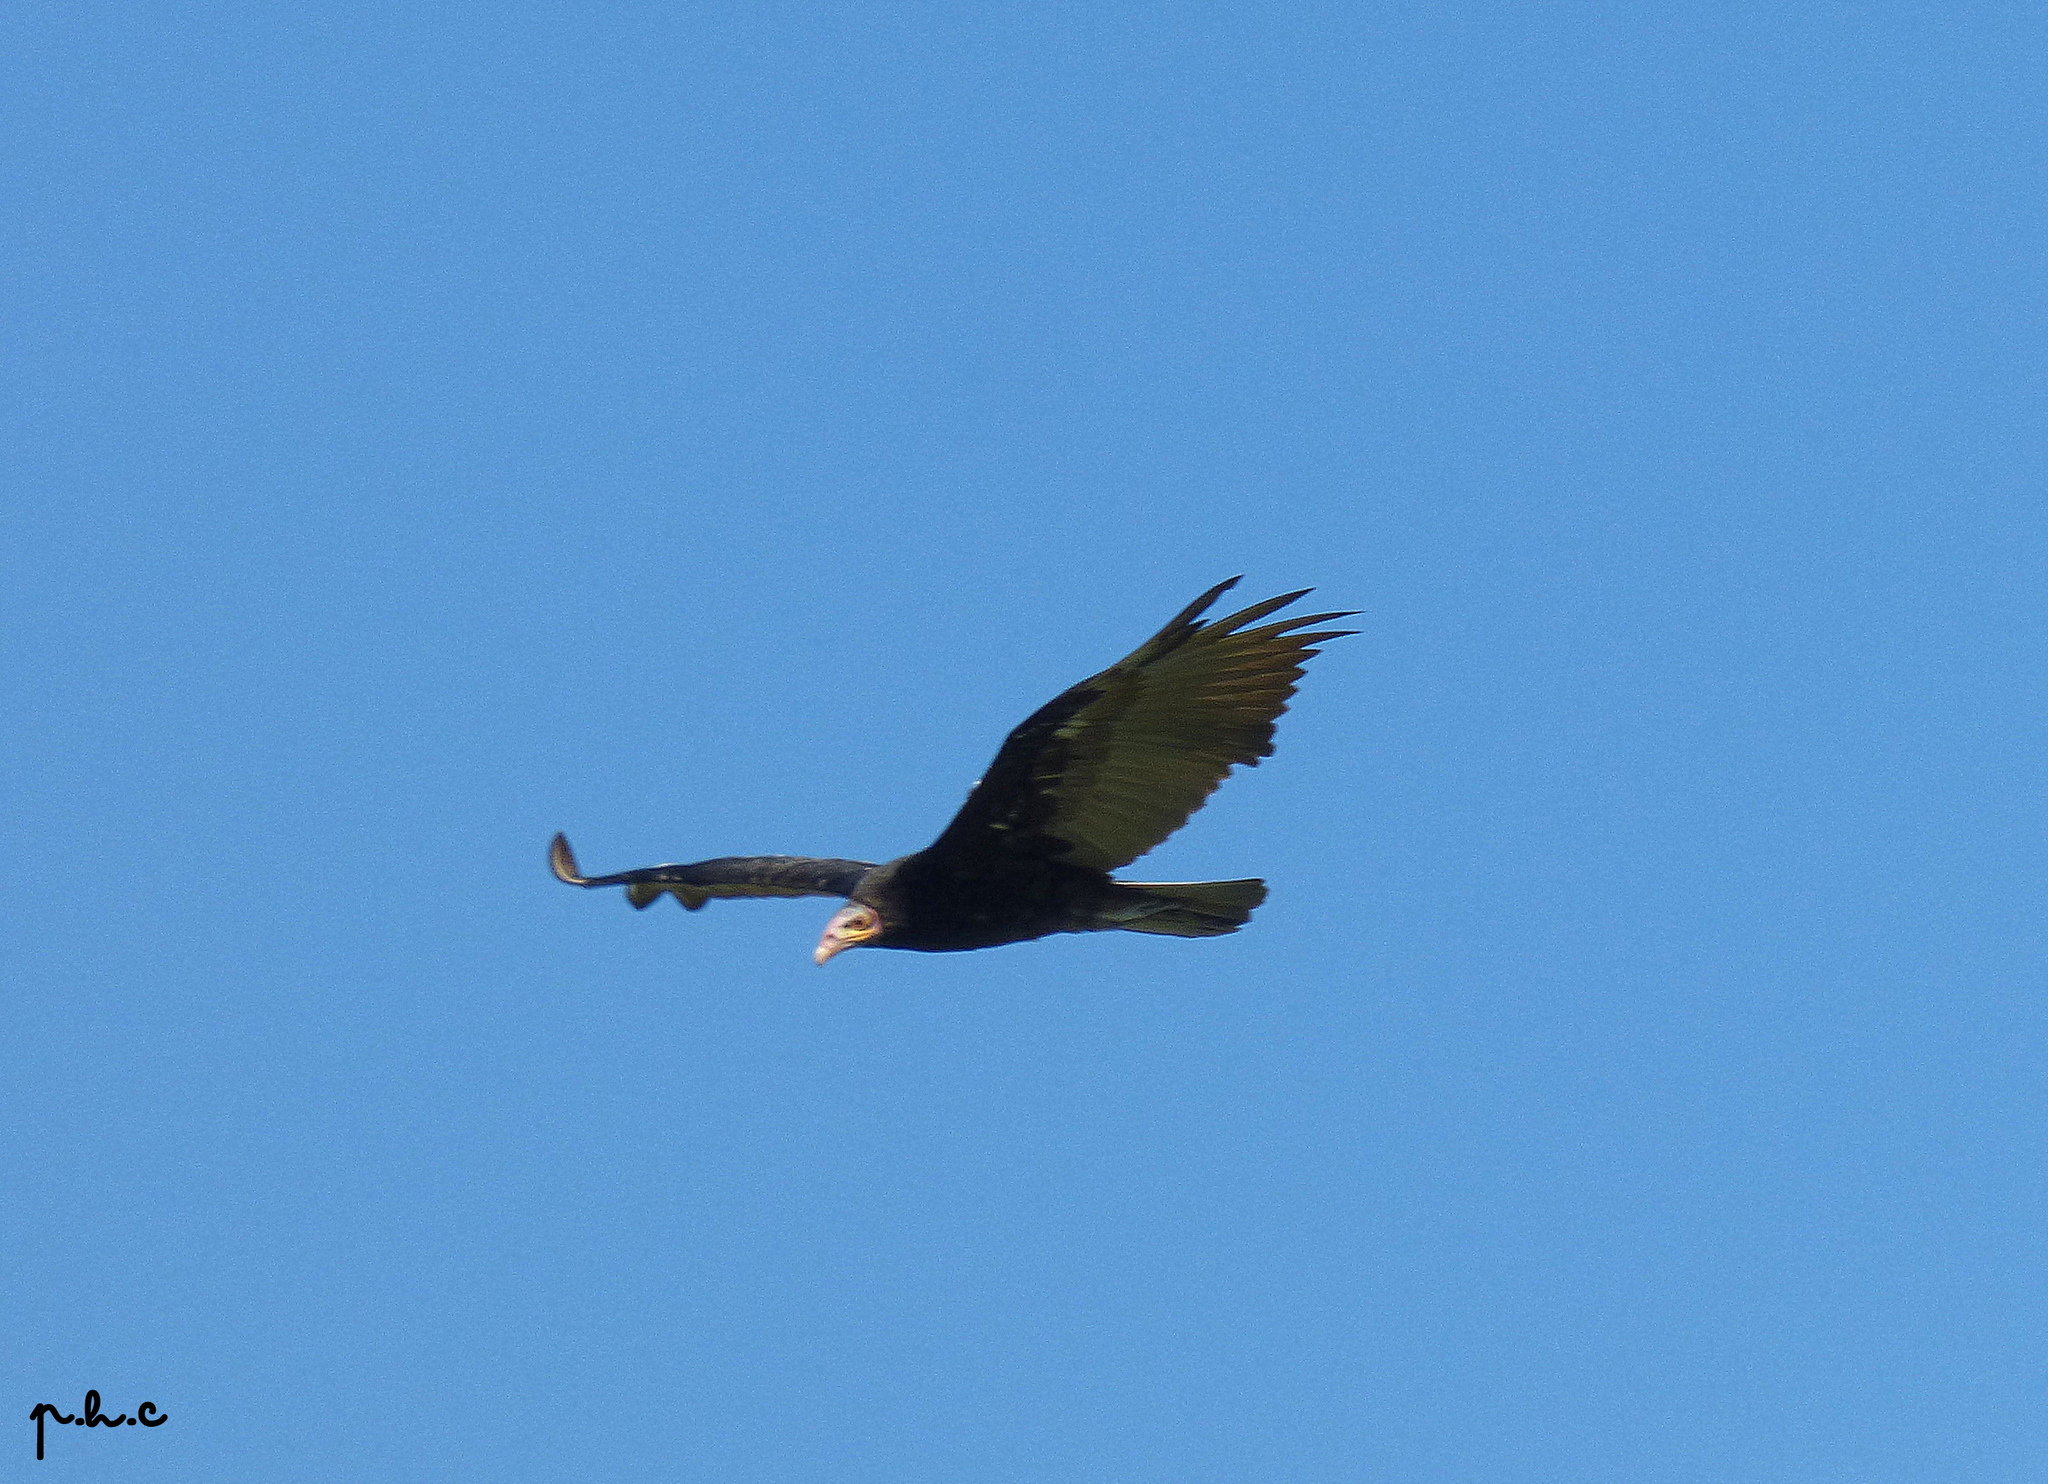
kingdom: Animalia
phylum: Chordata
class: Aves
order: Accipitriformes
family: Cathartidae
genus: Cathartes
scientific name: Cathartes burrovianus
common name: Lesser yellow-headed vulture
